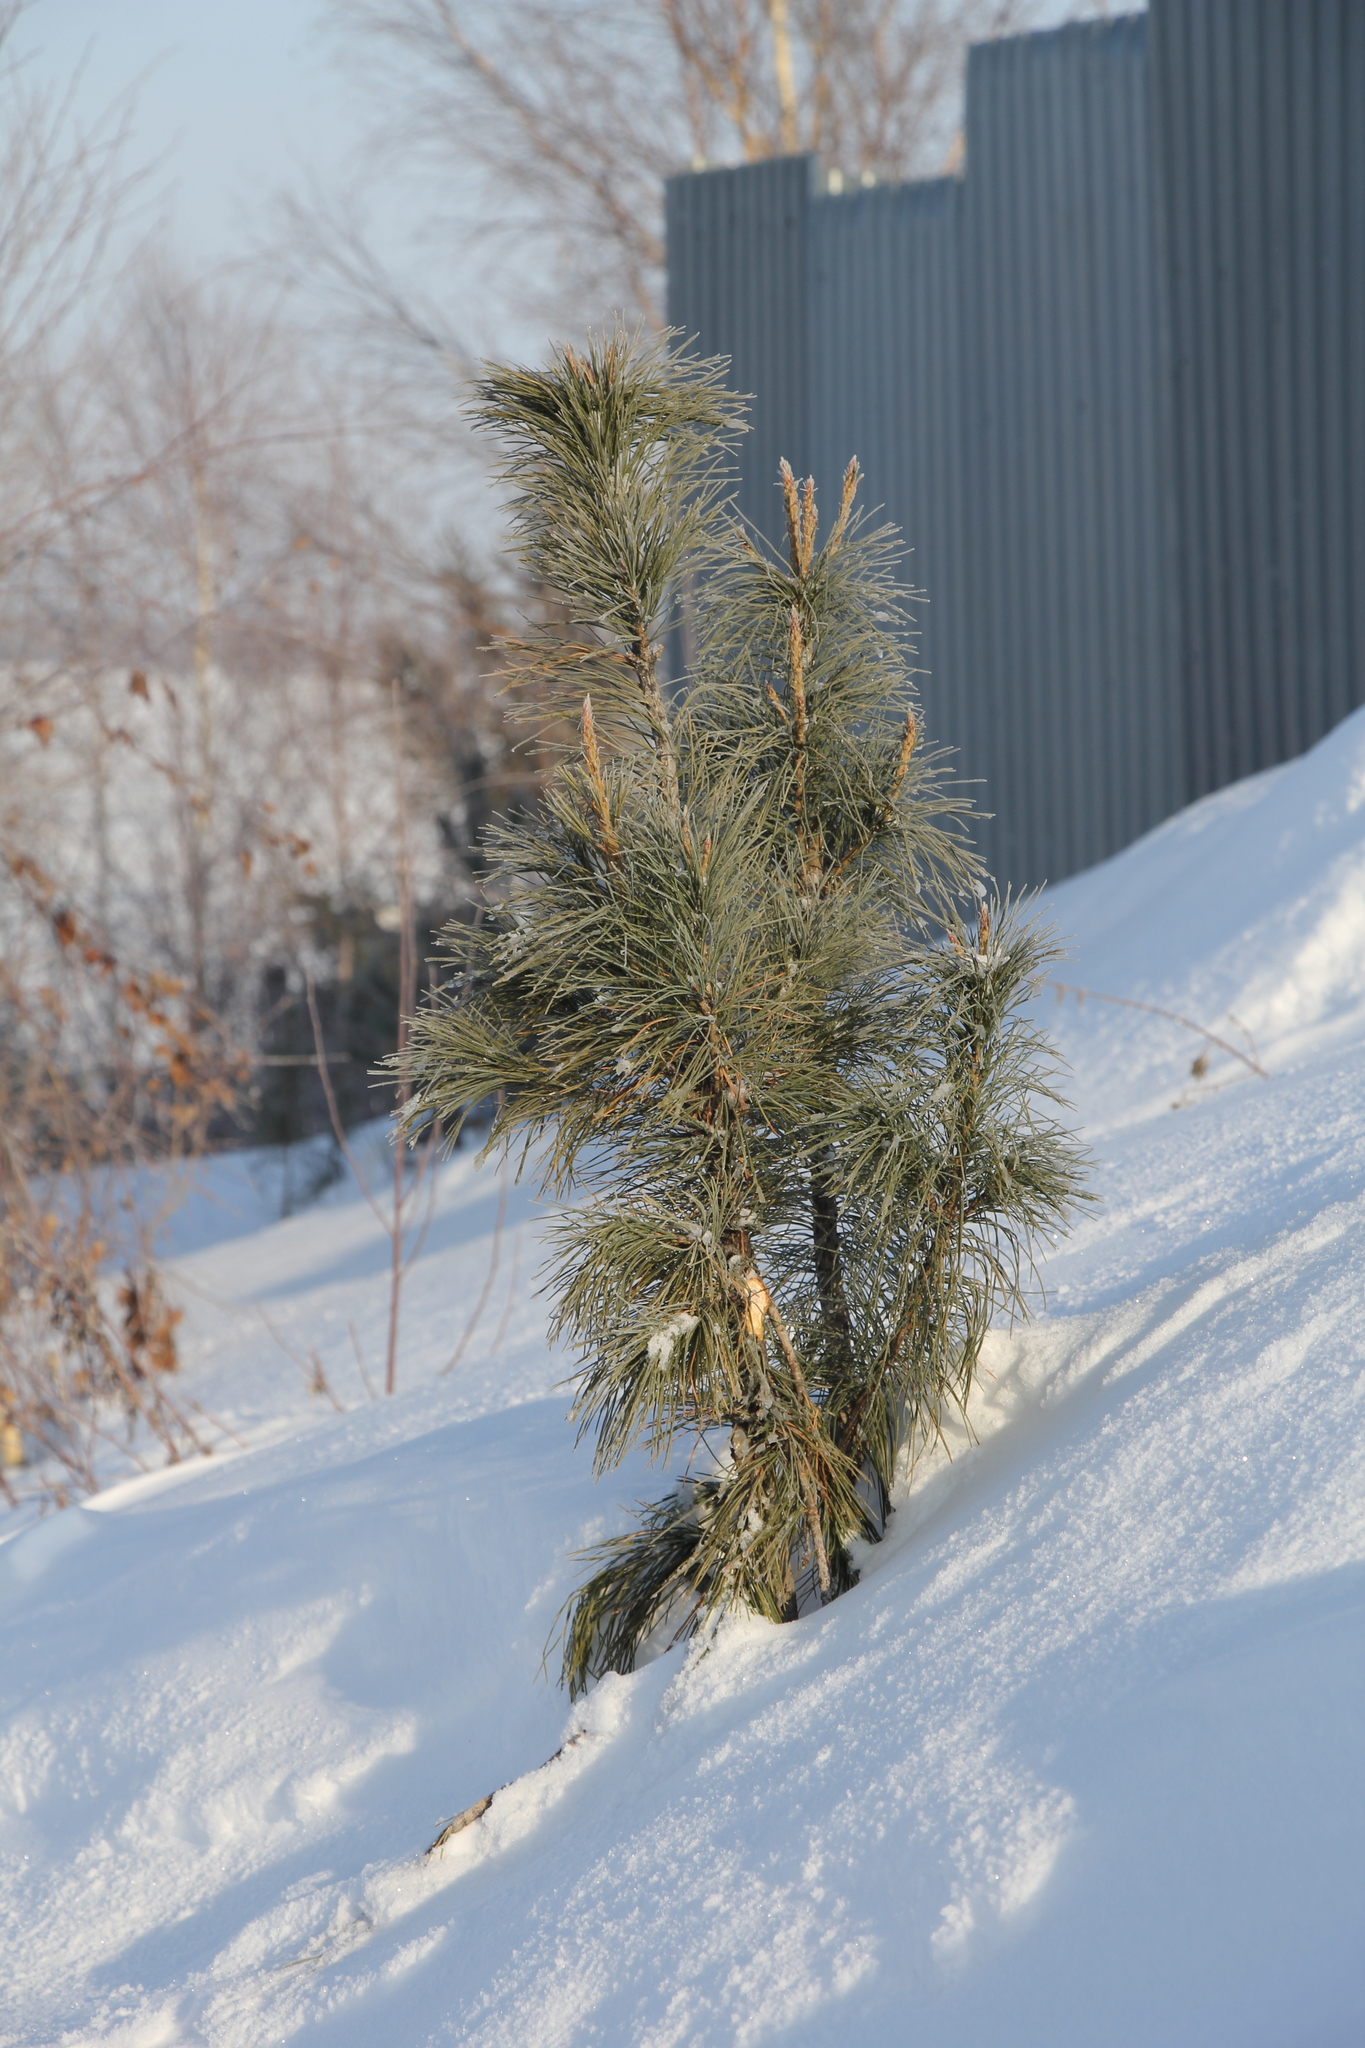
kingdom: Plantae
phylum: Tracheophyta
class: Pinopsida
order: Pinales
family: Pinaceae
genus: Pinus
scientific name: Pinus sibirica
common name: Siberian pine
